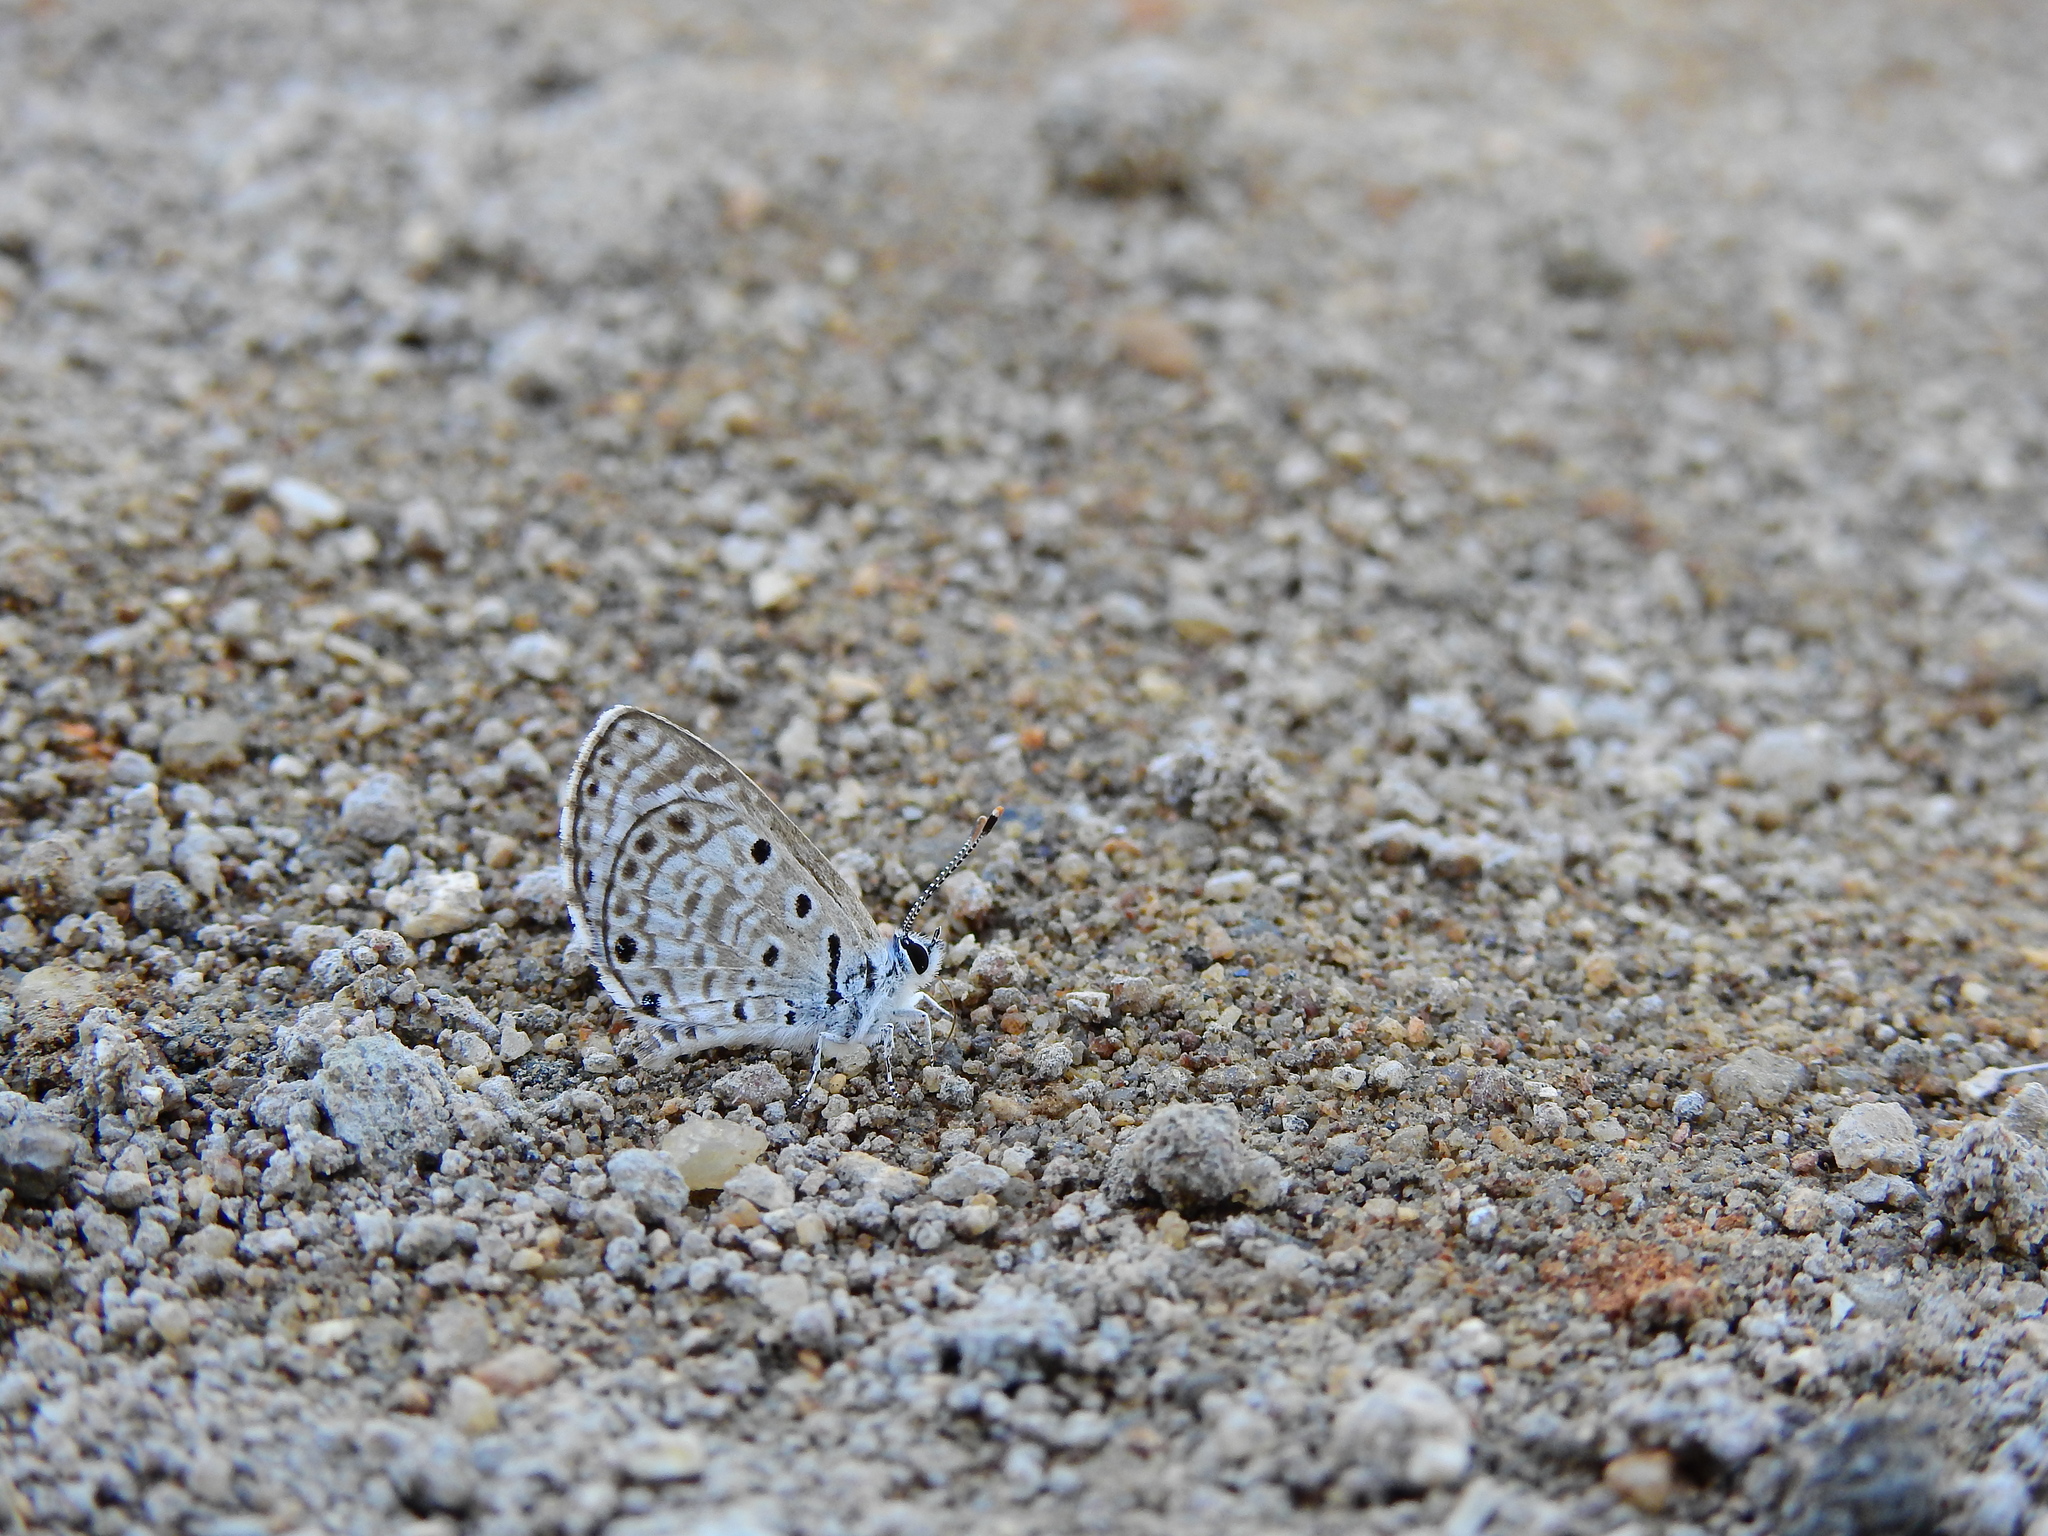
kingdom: Animalia
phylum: Arthropoda
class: Insecta
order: Lepidoptera
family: Lycaenidae
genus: Azanus
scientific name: Azanus jesous
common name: African babul blue
